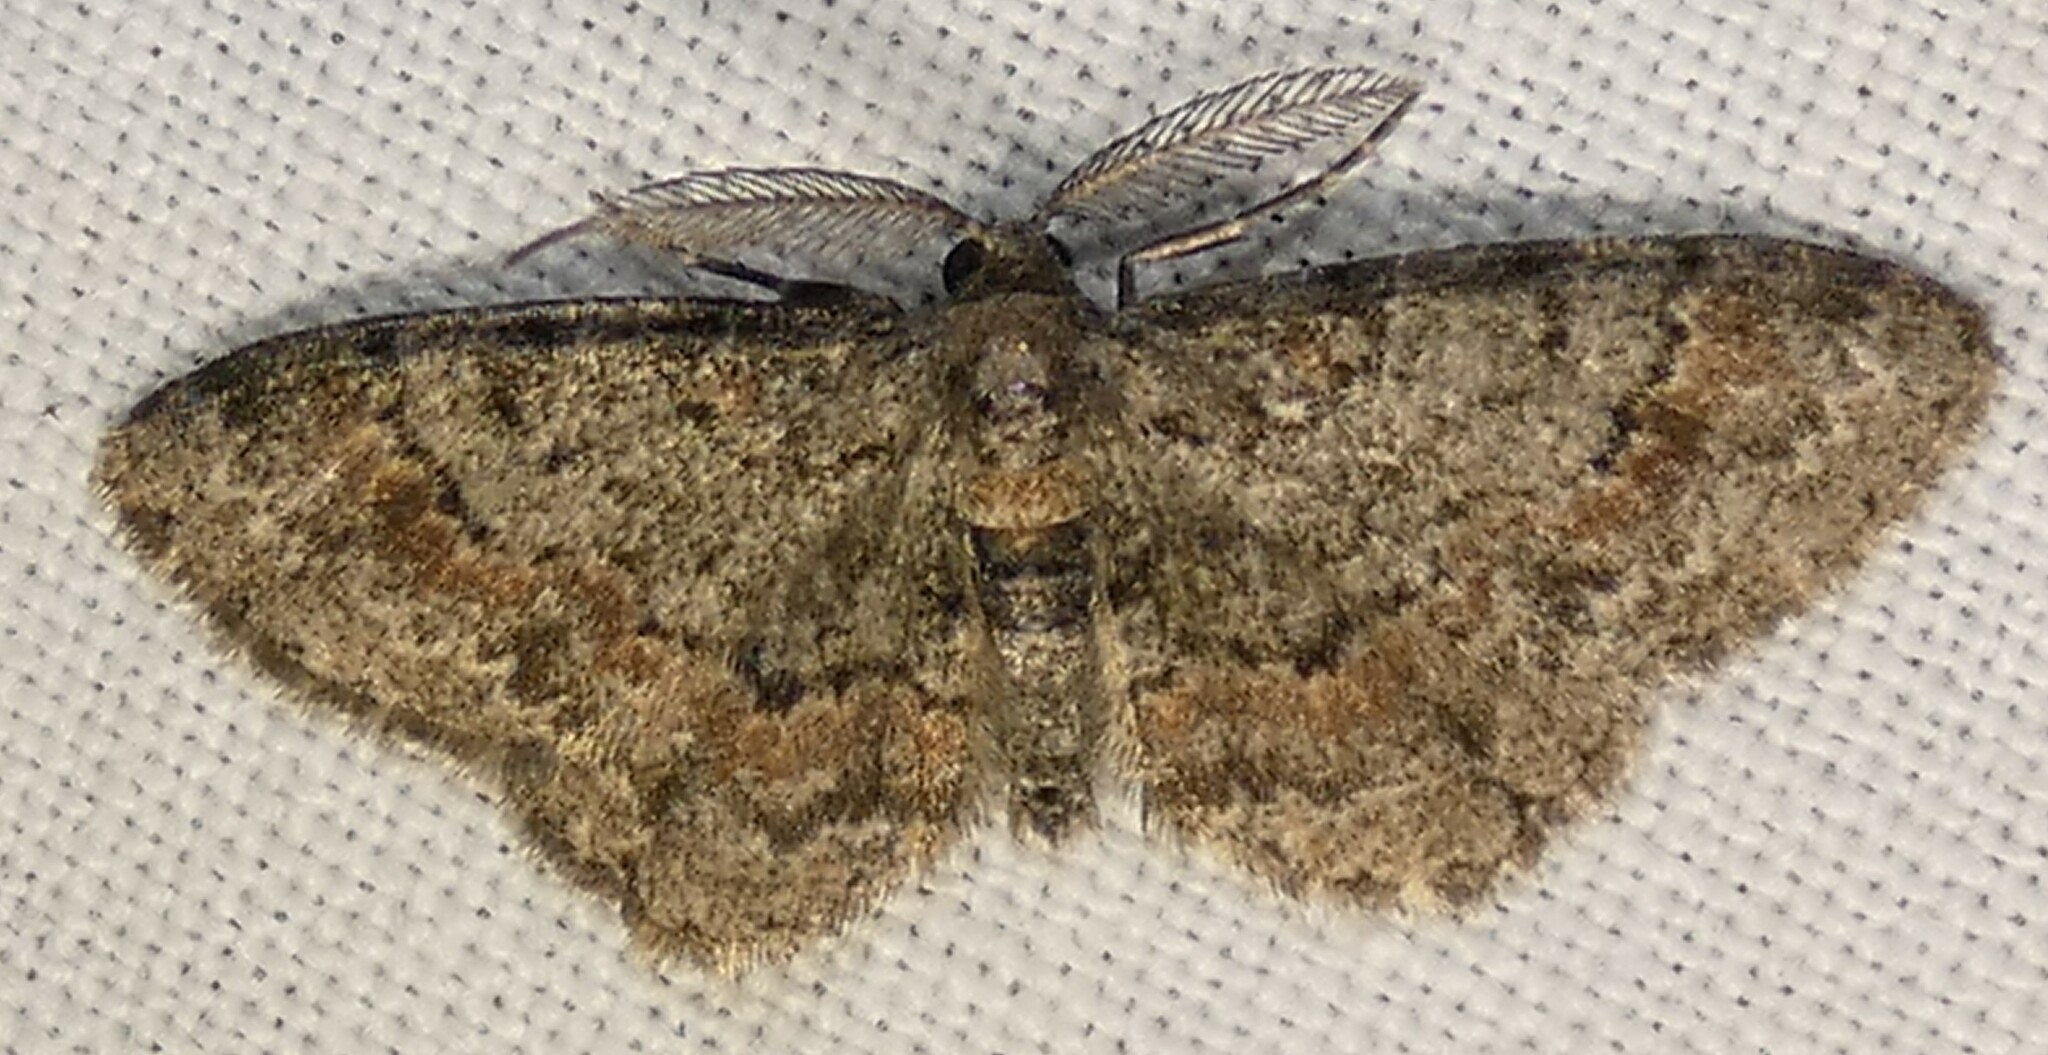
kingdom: Animalia
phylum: Arthropoda
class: Insecta
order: Lepidoptera
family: Geometridae
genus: Glenoides
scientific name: Glenoides texanaria
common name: Texas gray
